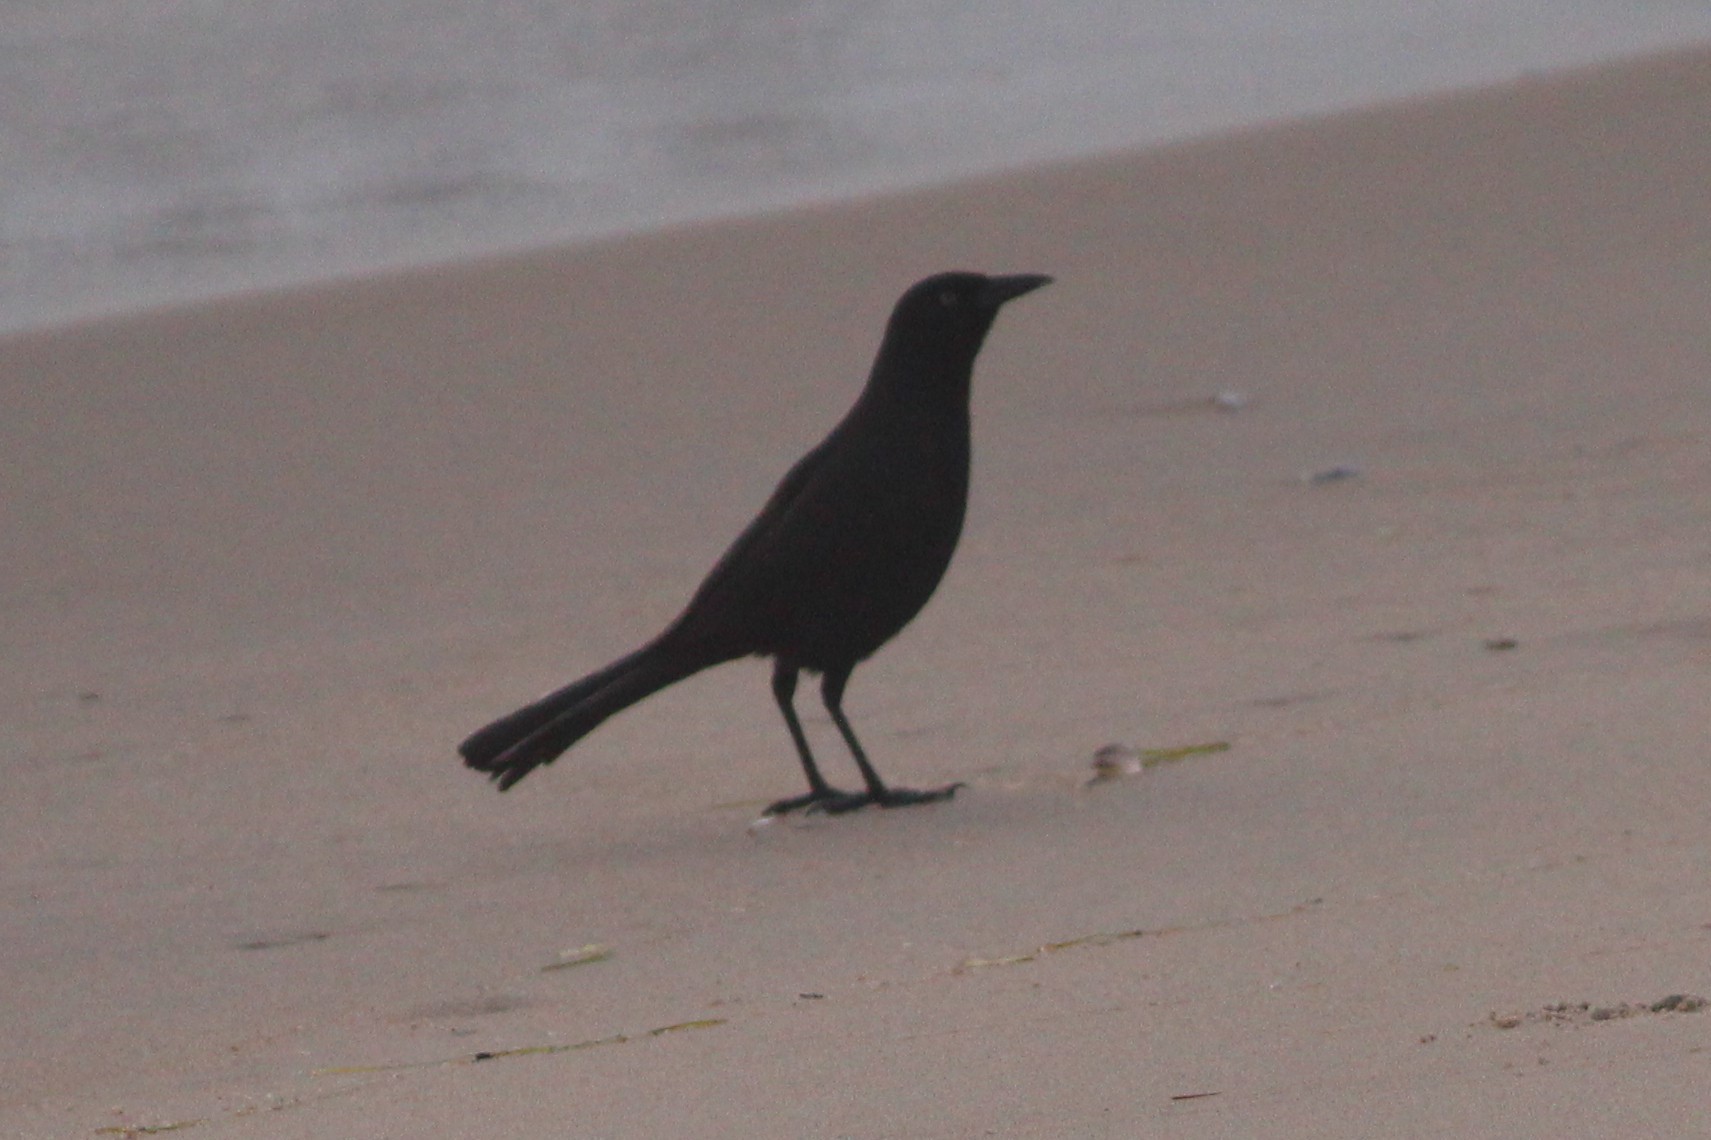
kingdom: Animalia
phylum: Chordata
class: Aves
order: Passeriformes
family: Icteridae
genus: Quiscalus
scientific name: Quiscalus major
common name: Boat-tailed grackle
